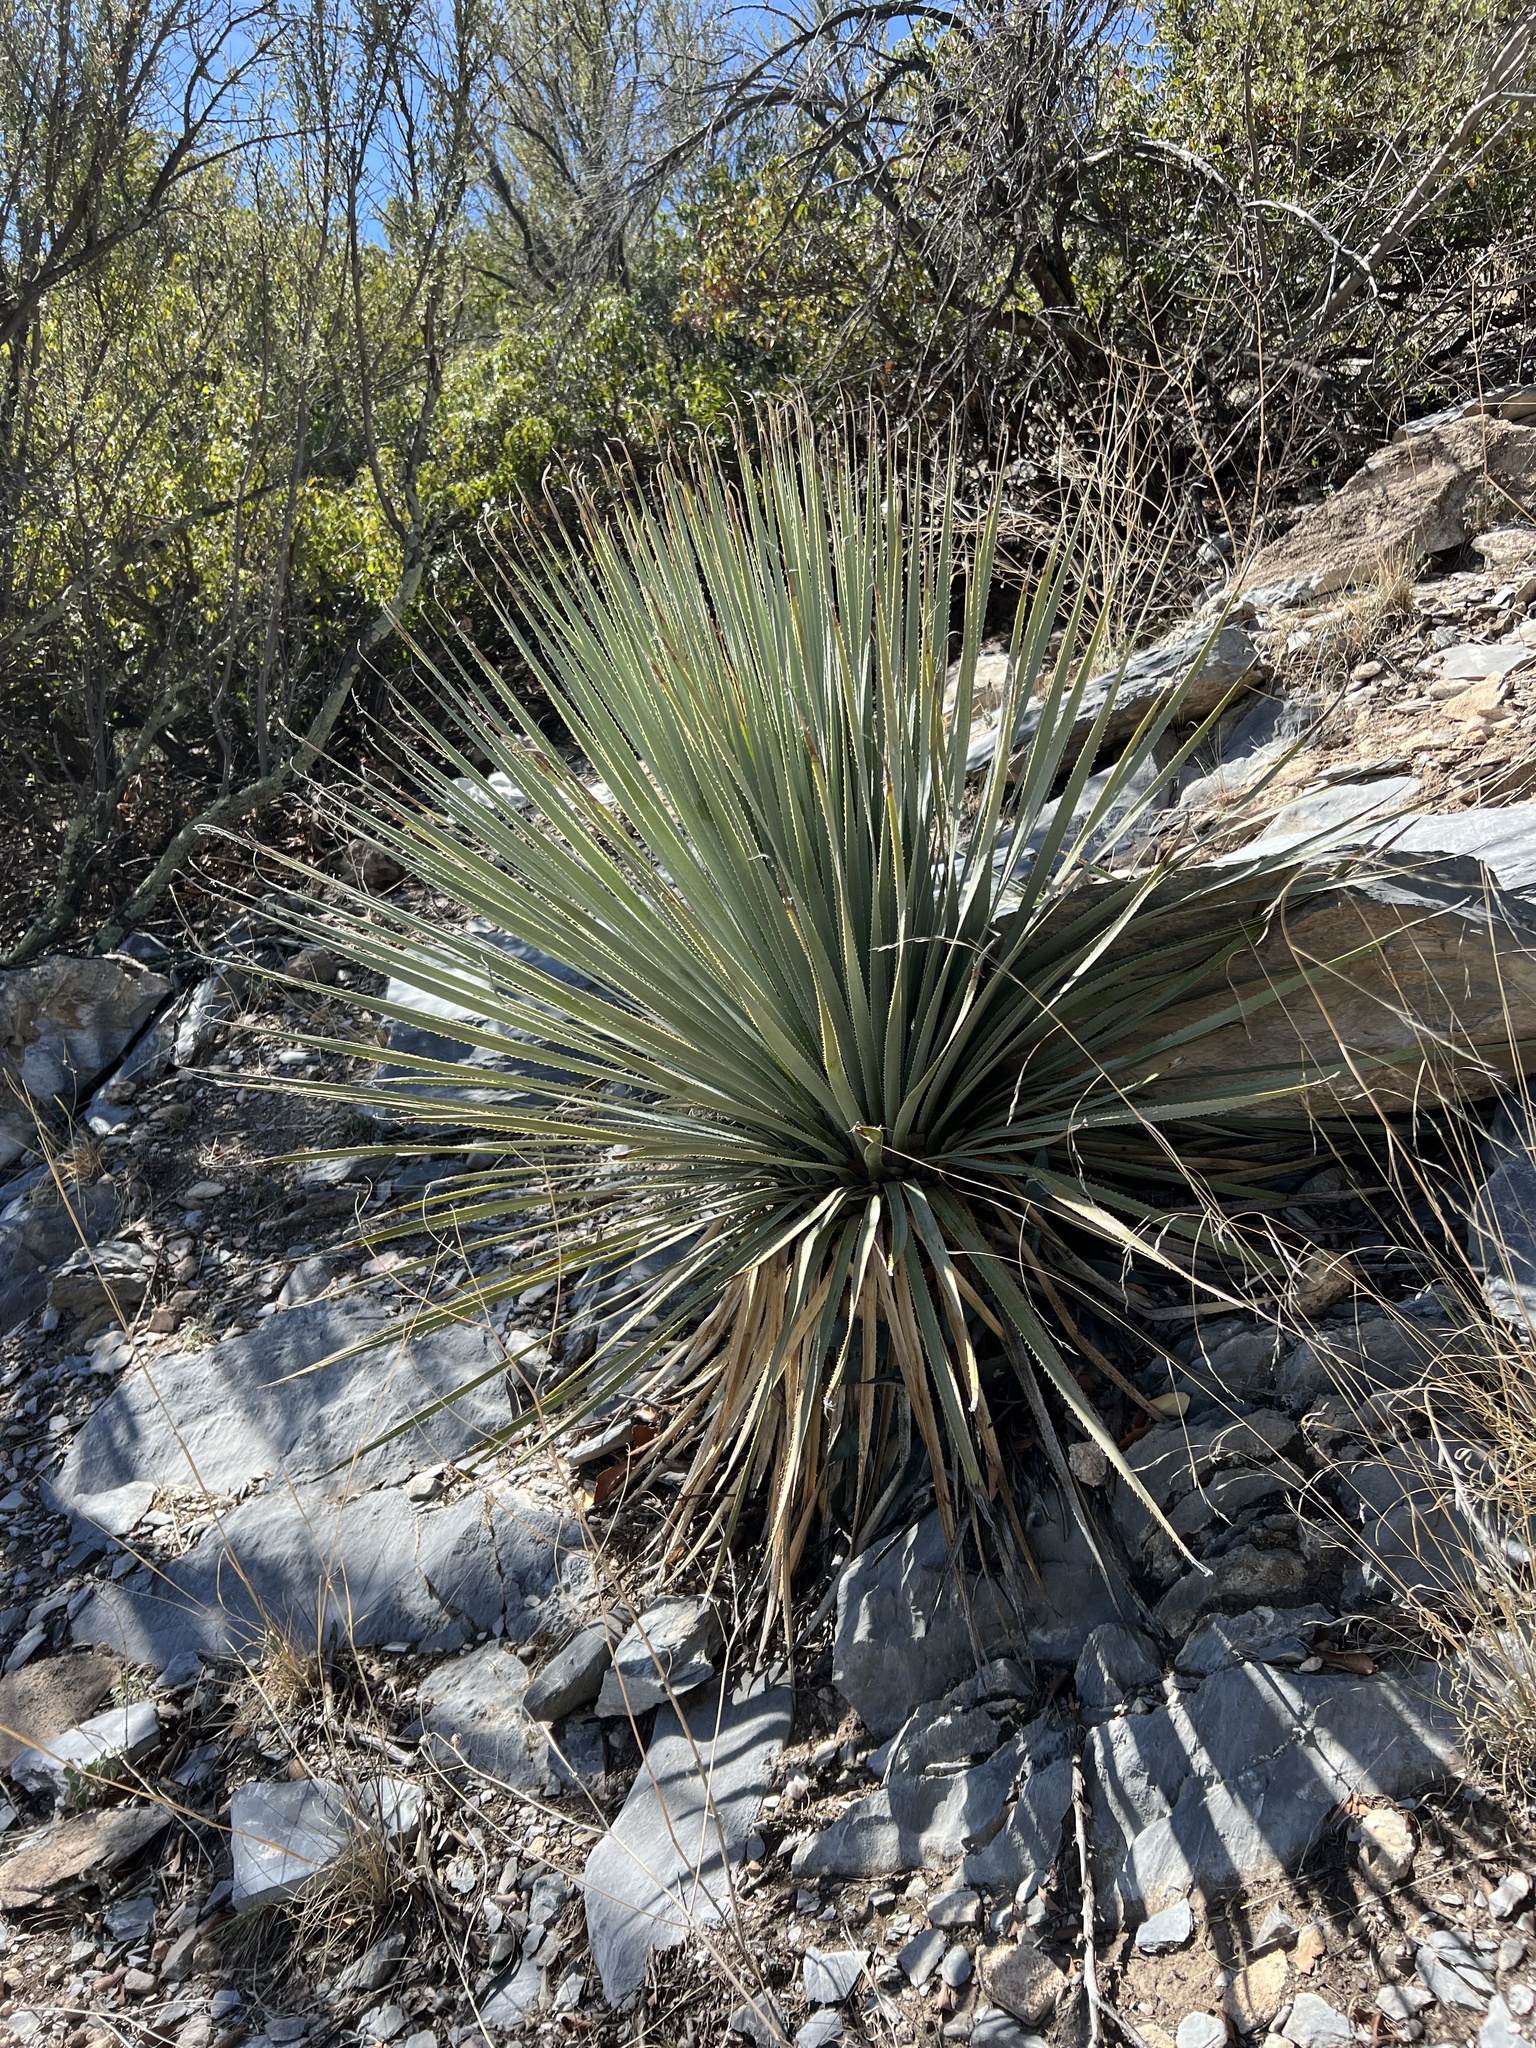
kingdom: Plantae
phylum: Tracheophyta
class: Liliopsida
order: Asparagales
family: Asparagaceae
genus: Dasylirion
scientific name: Dasylirion wheeleri
